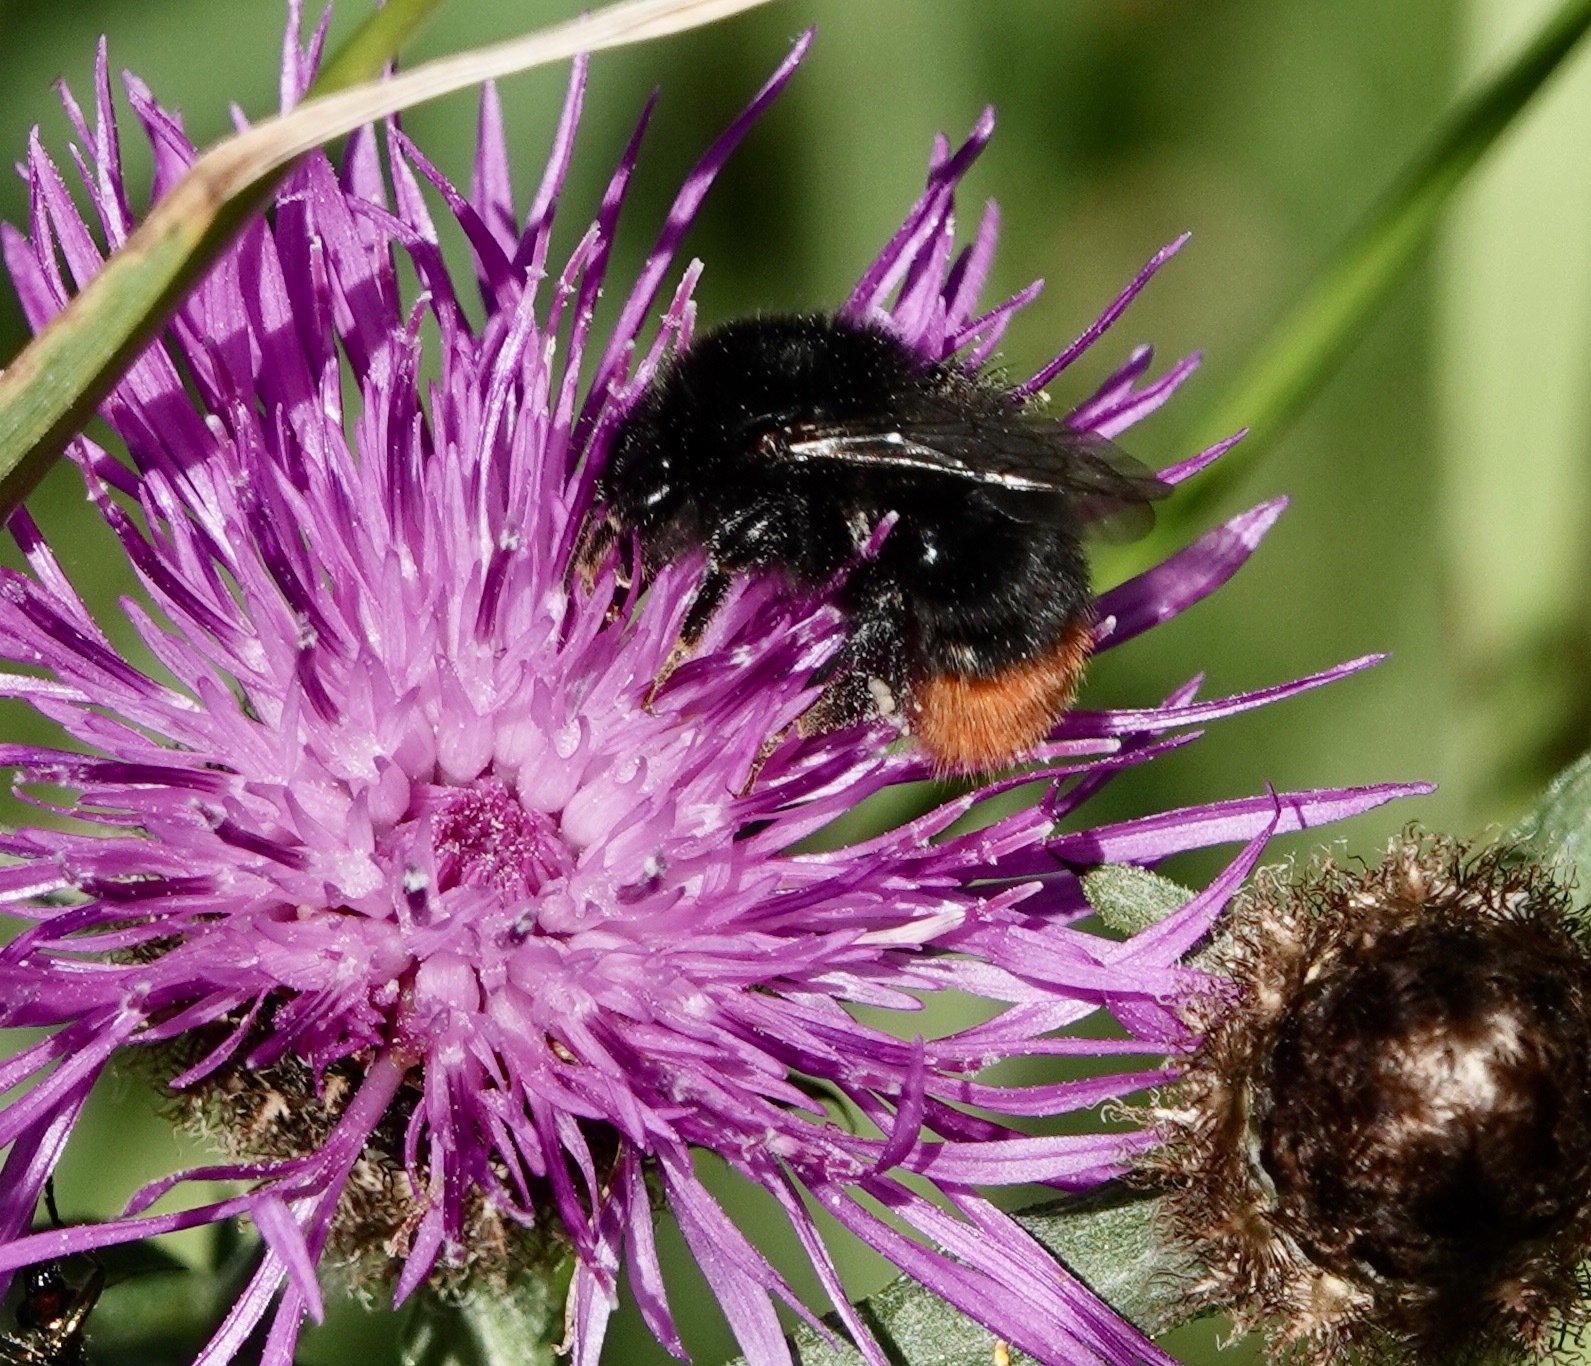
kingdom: Animalia
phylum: Arthropoda
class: Insecta
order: Hymenoptera
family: Apidae
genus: Bombus
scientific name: Bombus lapidarius
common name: Large red-tailed humble-bee
